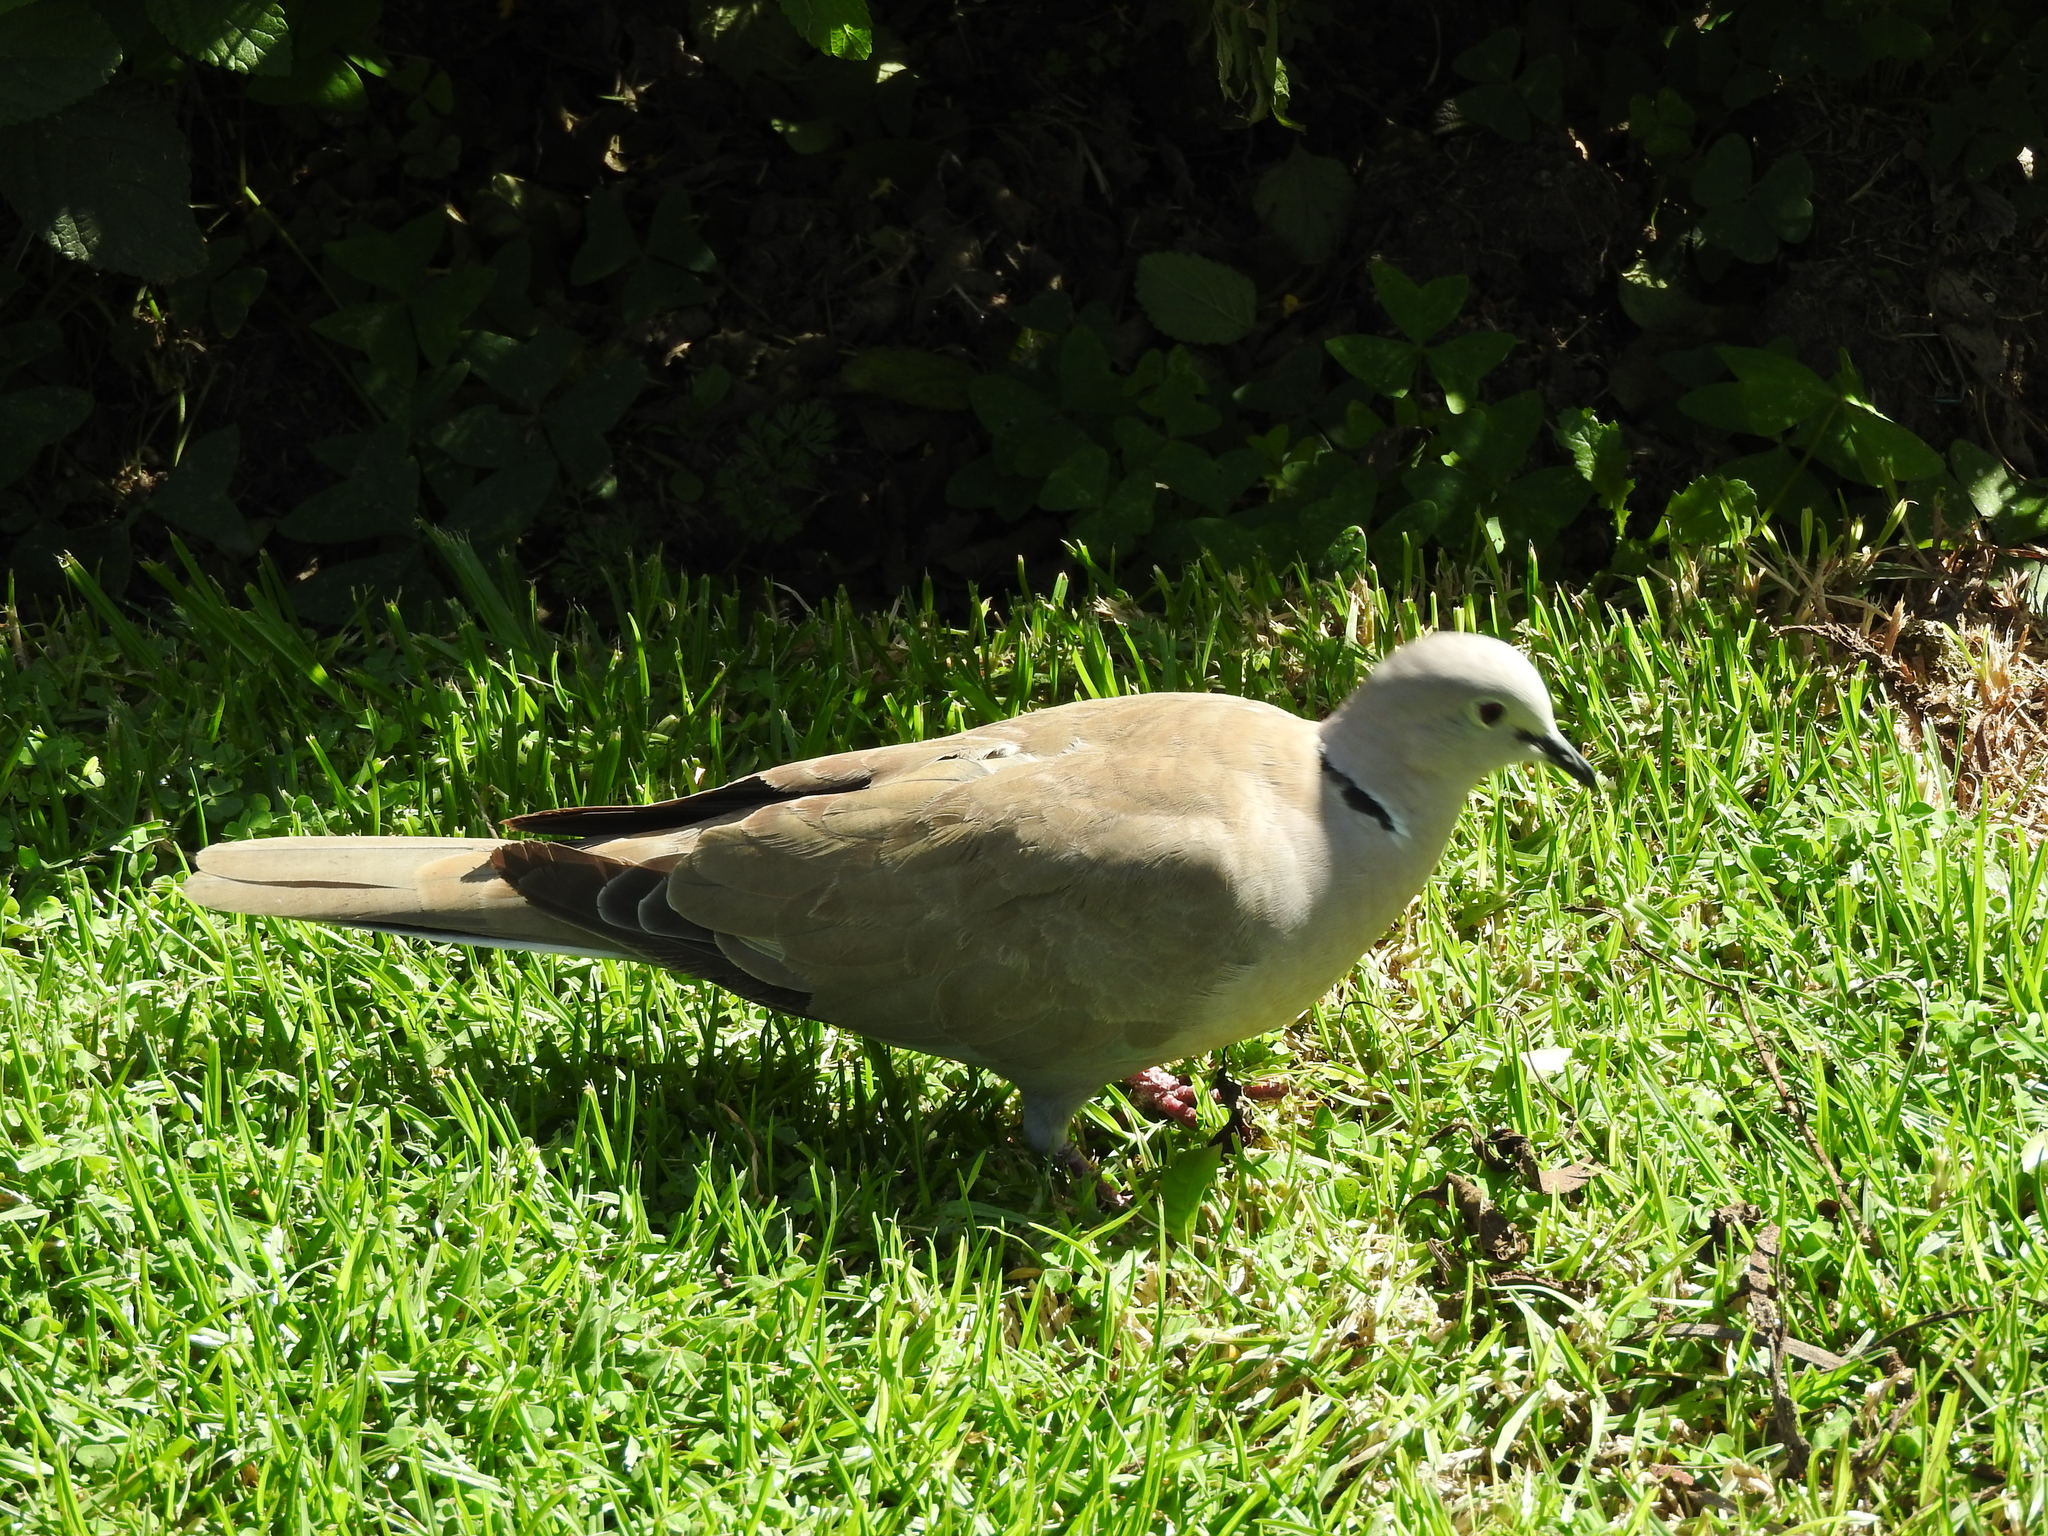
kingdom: Animalia
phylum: Chordata
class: Aves
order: Columbiformes
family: Columbidae
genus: Streptopelia
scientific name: Streptopelia decaocto
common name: Eurasian collared dove
